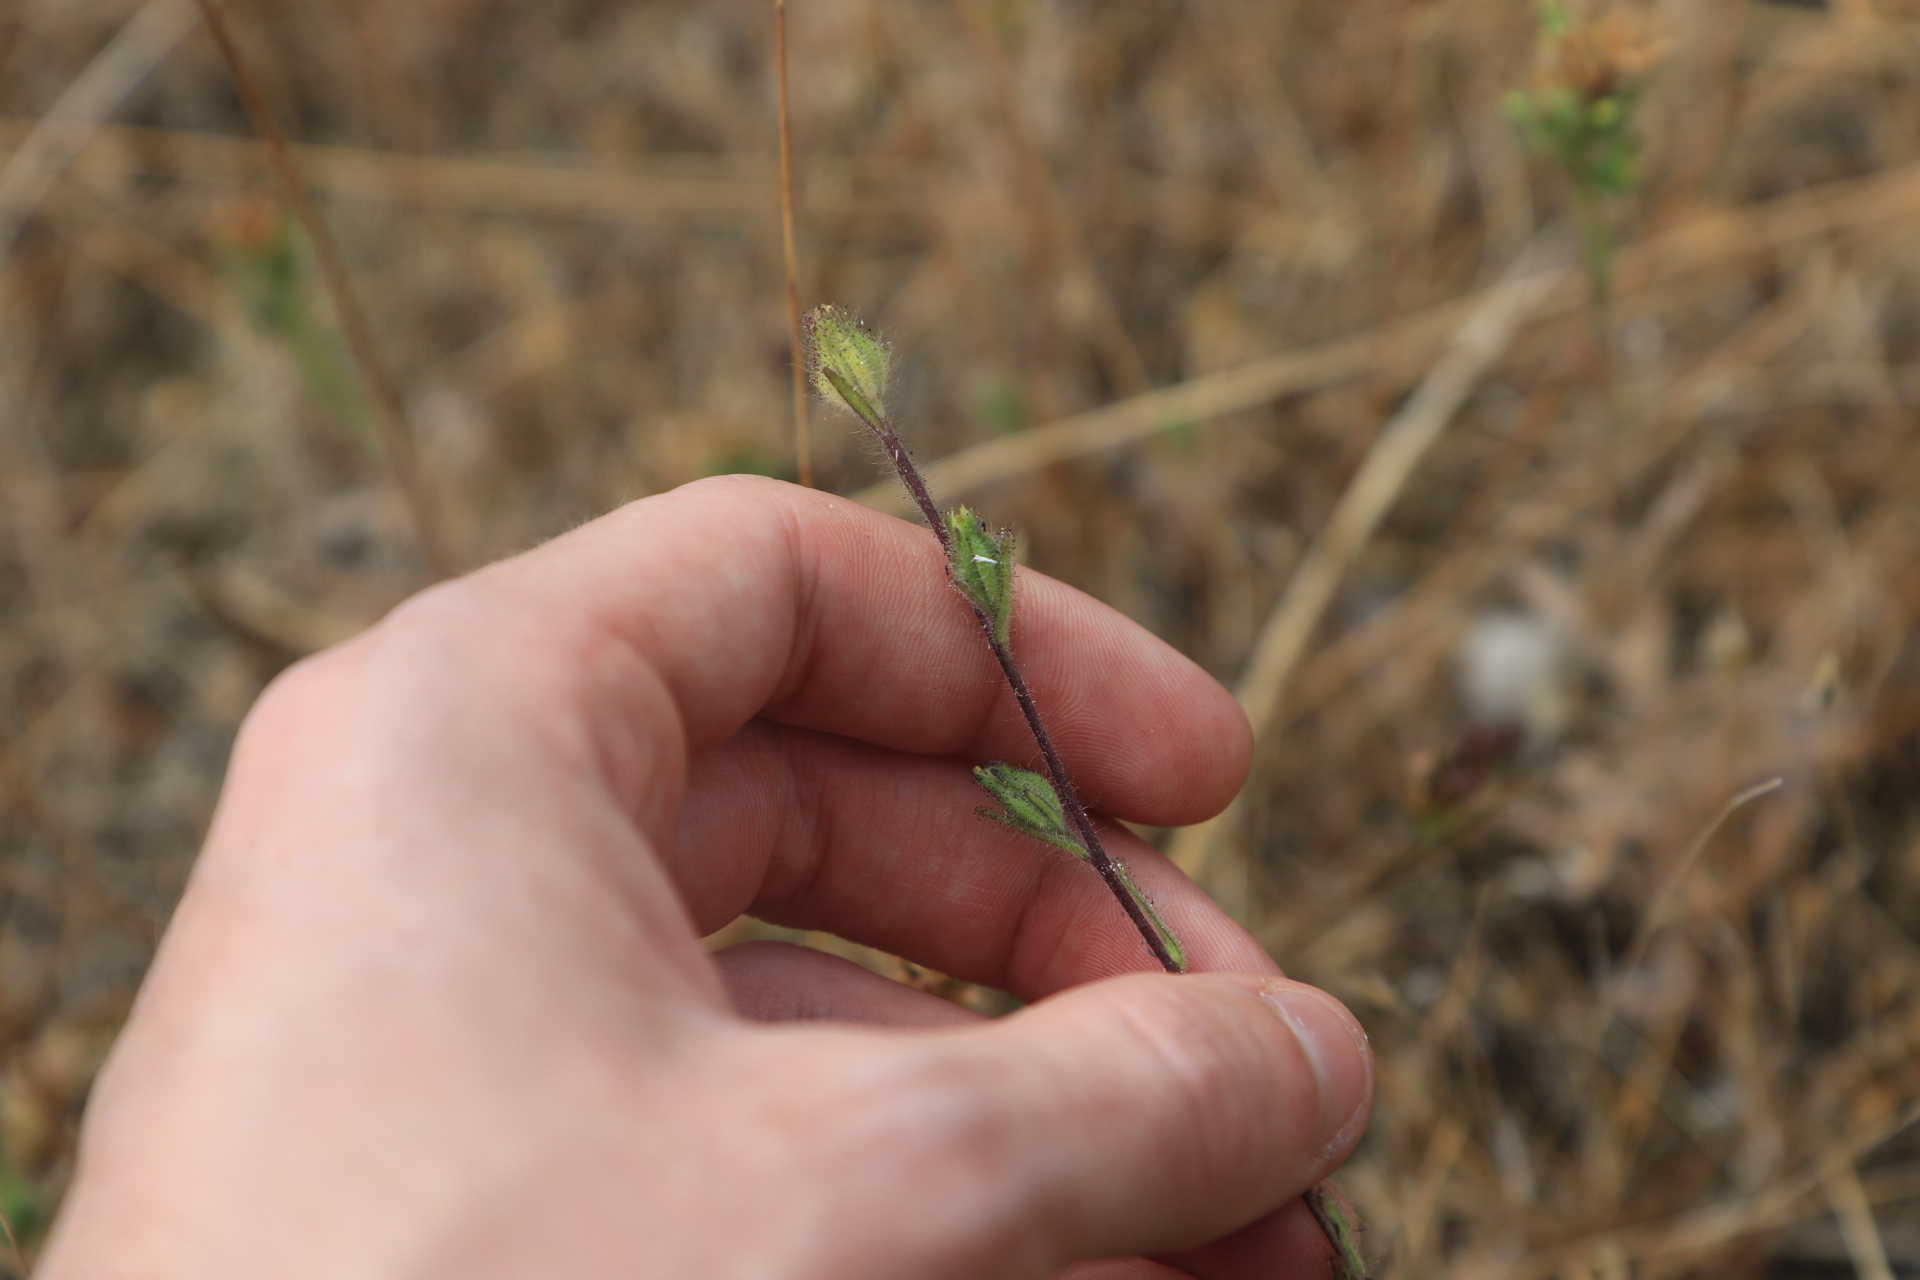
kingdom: Plantae
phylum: Tracheophyta
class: Magnoliopsida
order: Asterales
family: Asteraceae
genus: Madia
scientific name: Madia gracilis
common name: Grassy tarweed
